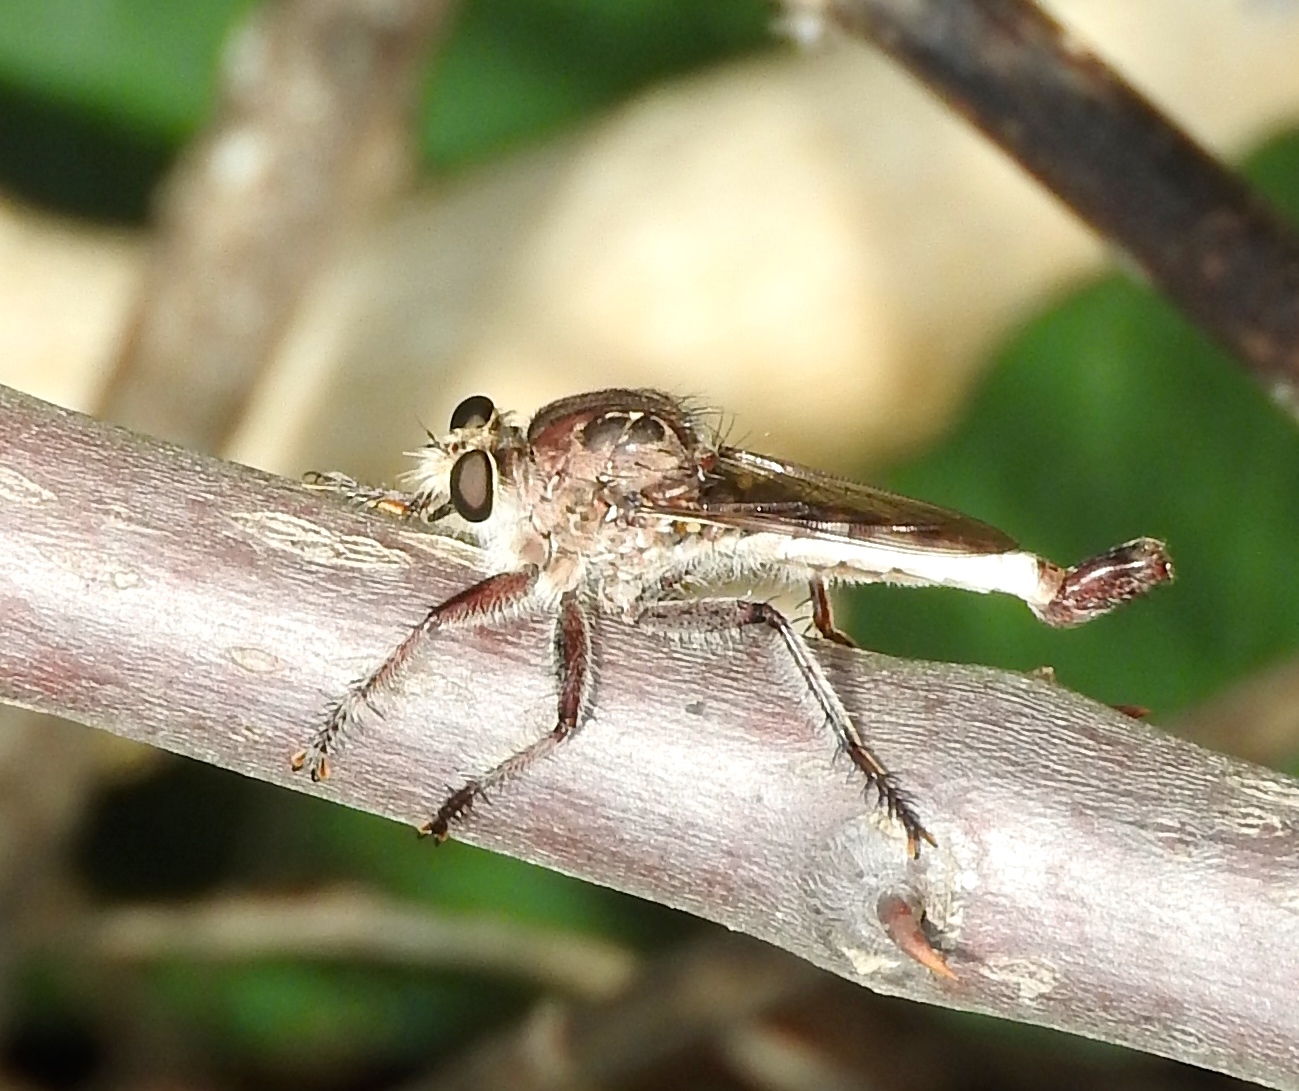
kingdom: Animalia
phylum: Arthropoda
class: Insecta
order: Diptera
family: Asilidae
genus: Efferia
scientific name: Efferia
